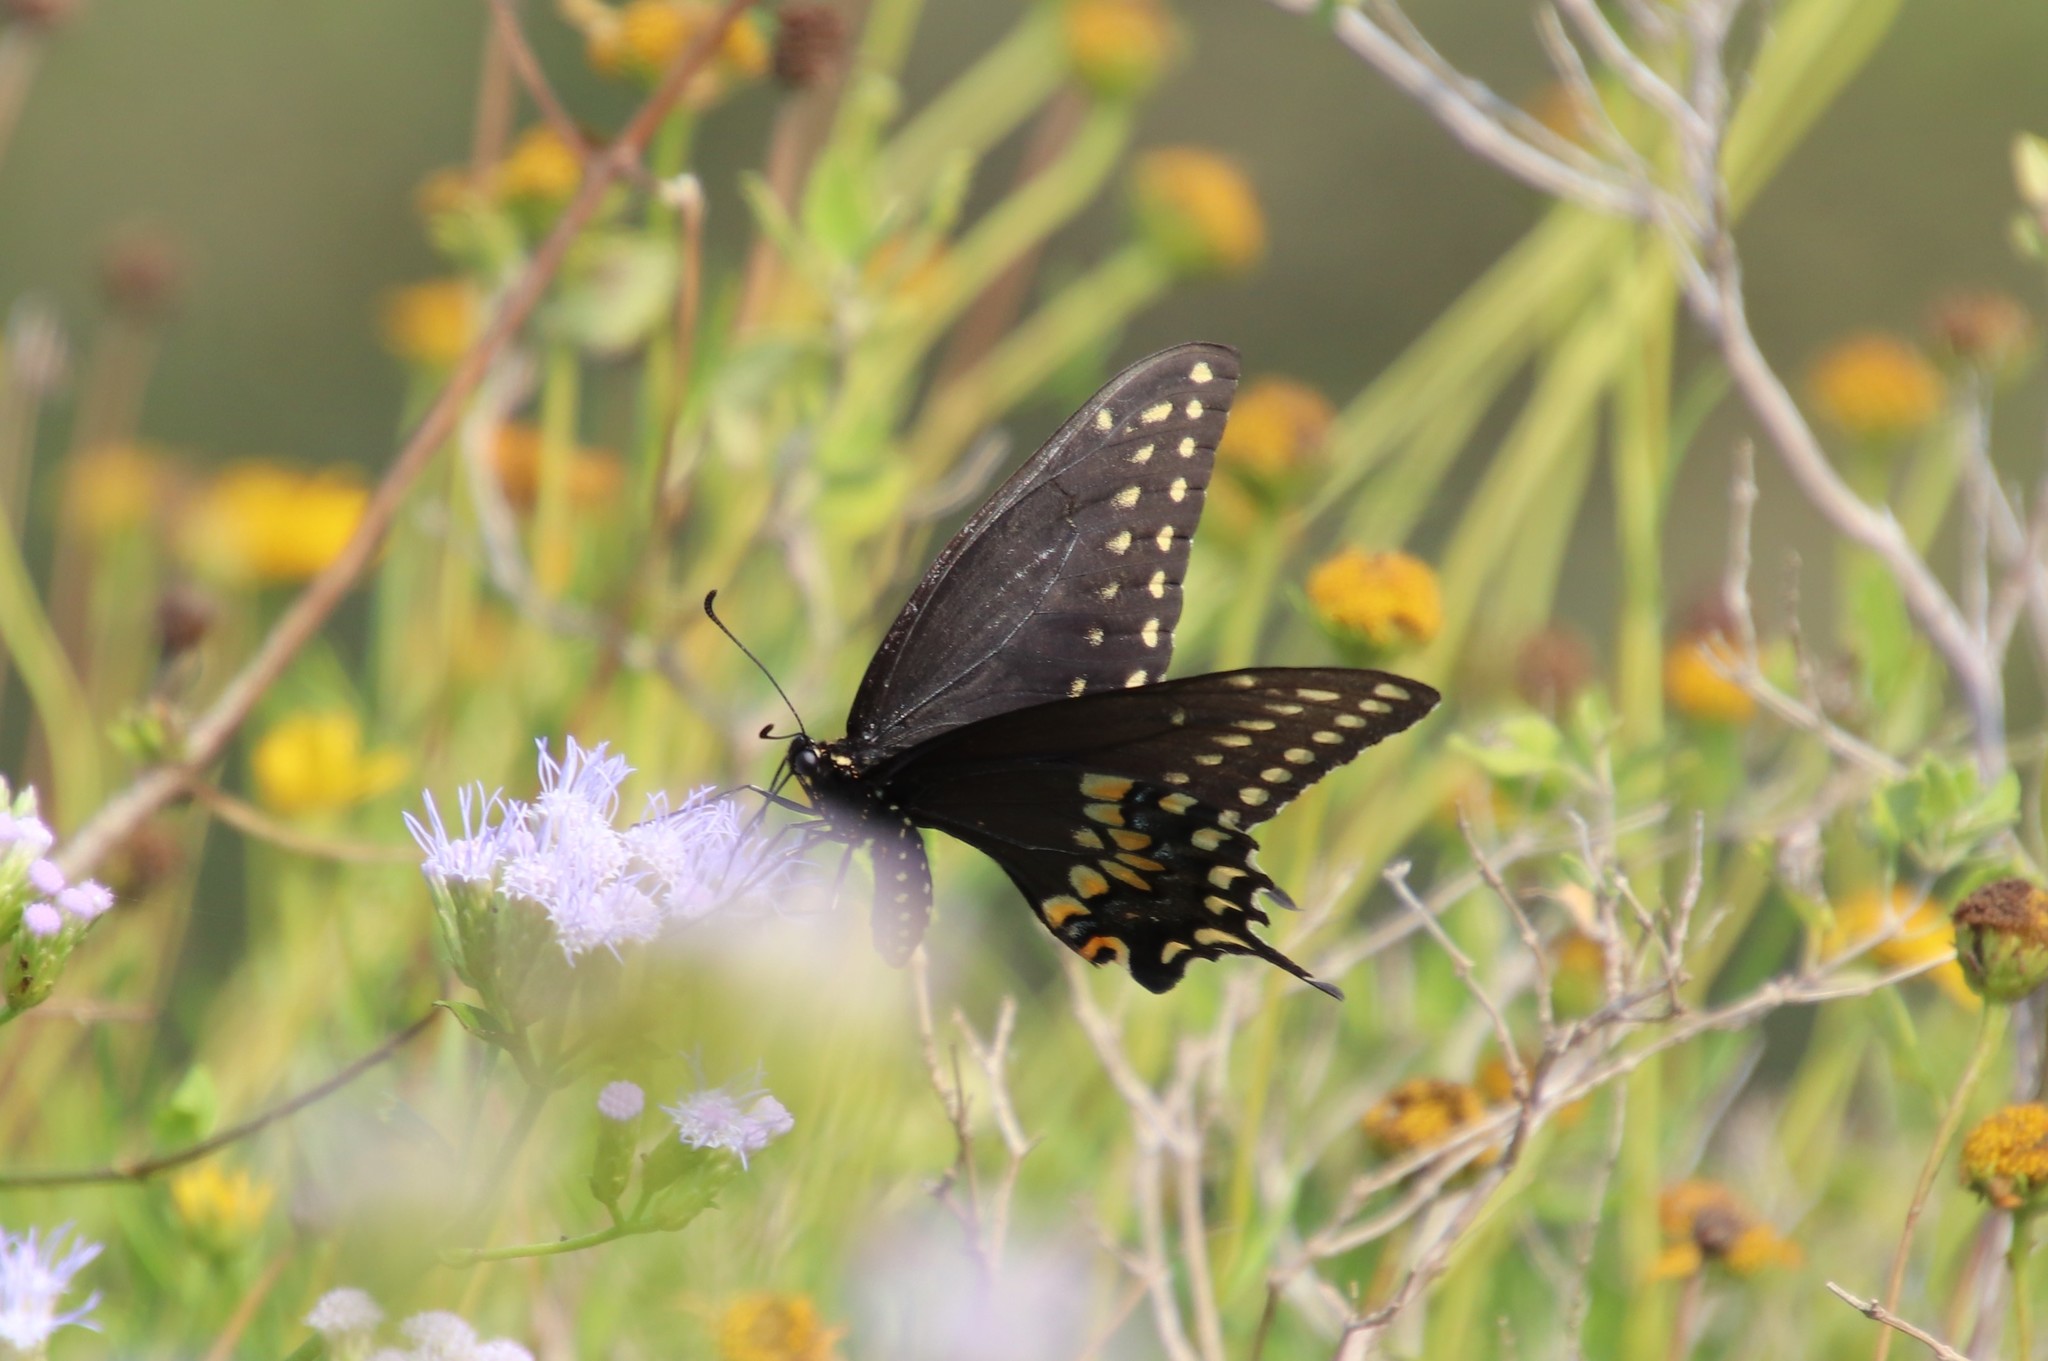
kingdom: Animalia
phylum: Arthropoda
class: Insecta
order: Lepidoptera
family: Papilionidae
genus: Papilio
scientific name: Papilio polyxenes
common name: Black swallowtail
